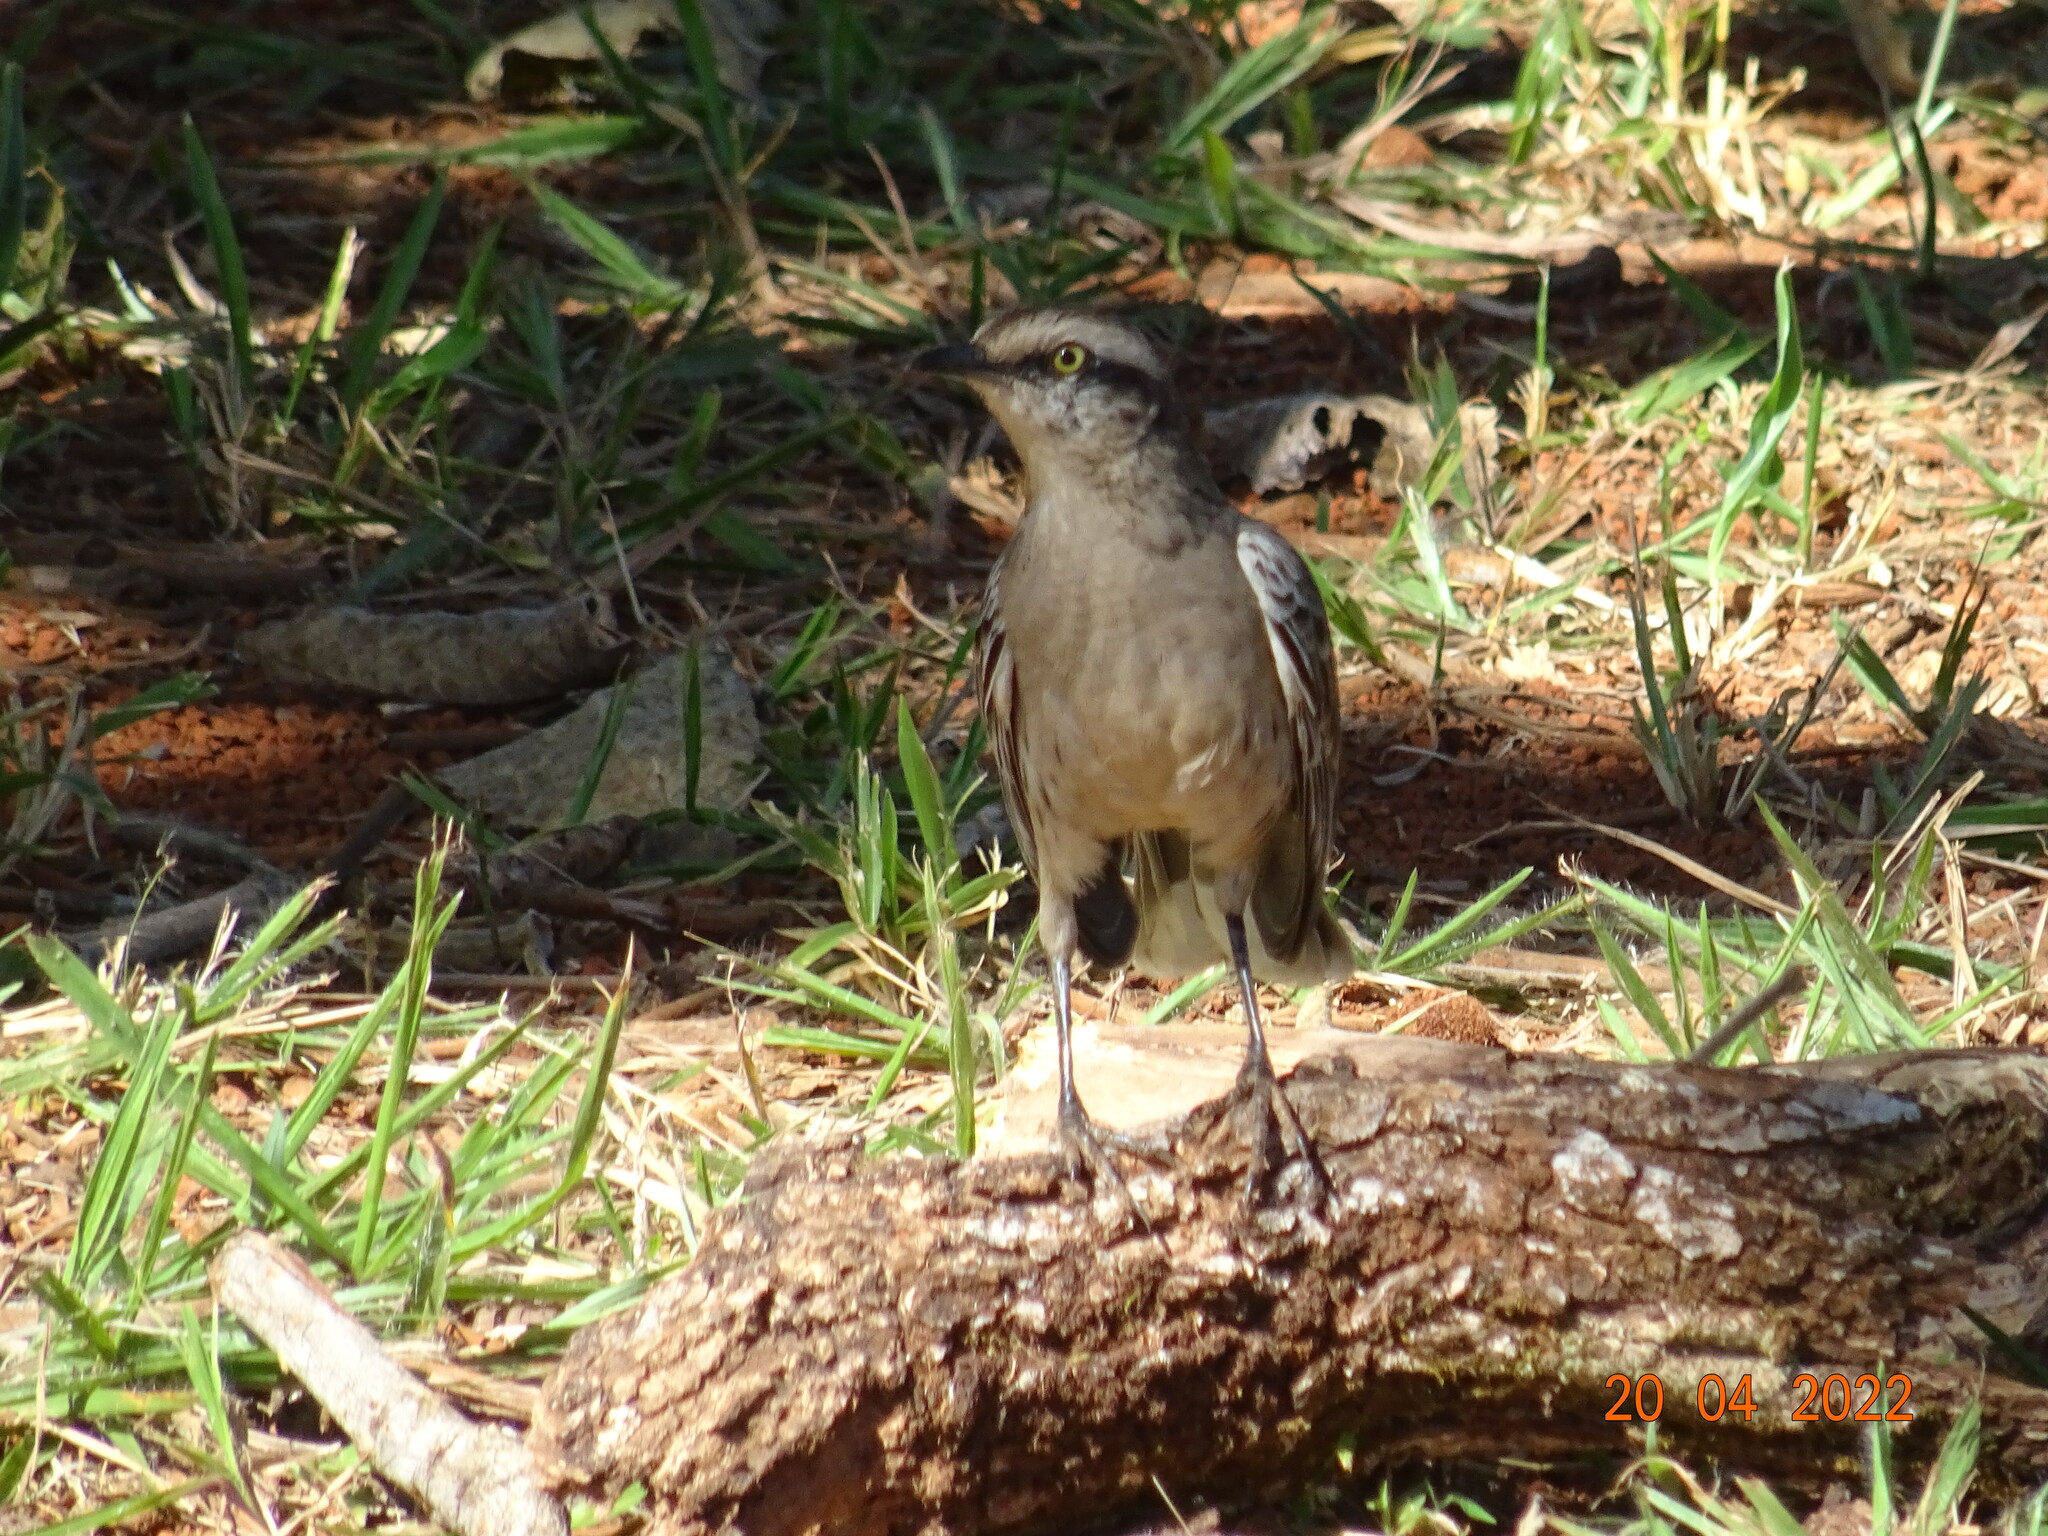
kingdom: Animalia
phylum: Chordata
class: Aves
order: Passeriformes
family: Mimidae
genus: Mimus
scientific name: Mimus saturninus
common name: Chalk-browed mockingbird
